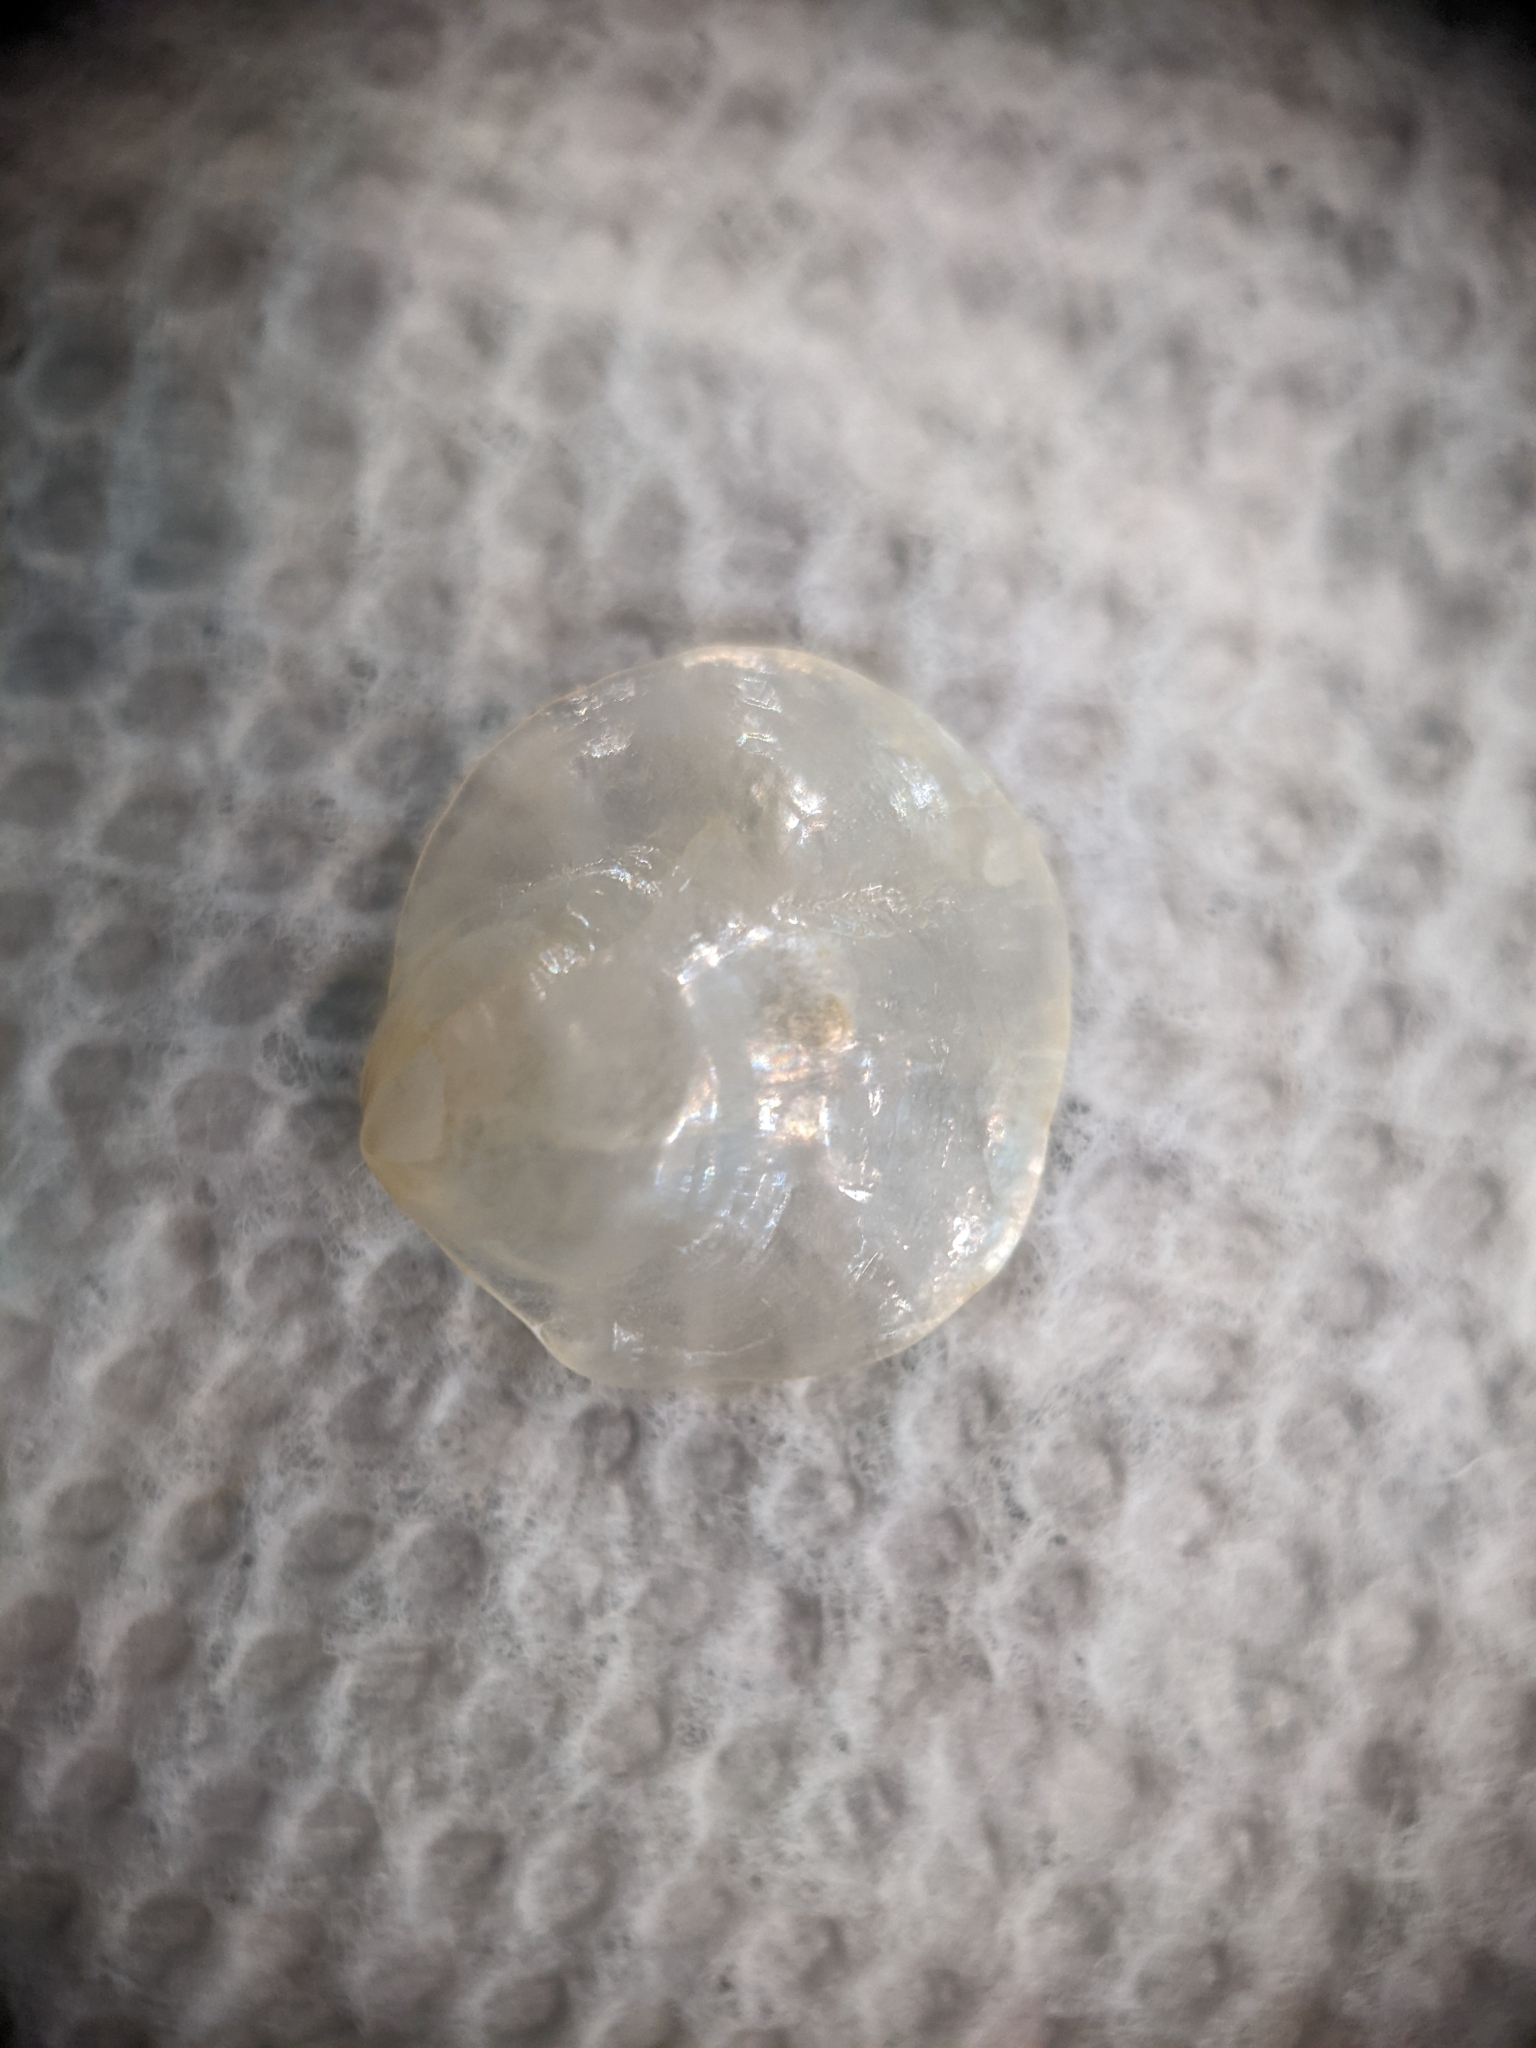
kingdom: Animalia
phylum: Mollusca
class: Bivalvia
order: Pectinida
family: Anomiidae
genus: Anomia
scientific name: Anomia simplex
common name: Common jingle shell
